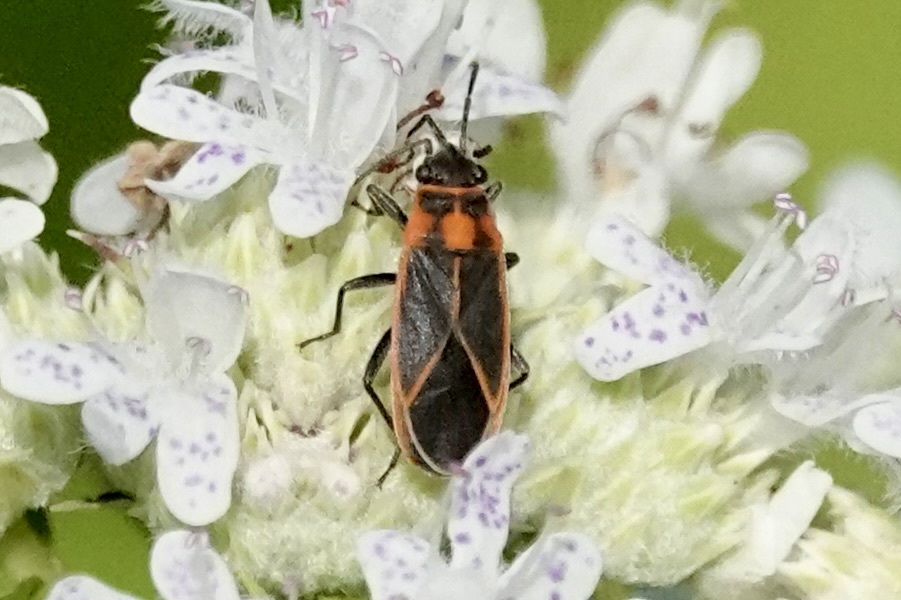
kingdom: Animalia
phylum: Arthropoda
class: Insecta
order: Hemiptera
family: Lygaeidae
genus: Ochrimnus
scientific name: Ochrimnus lineoloides
